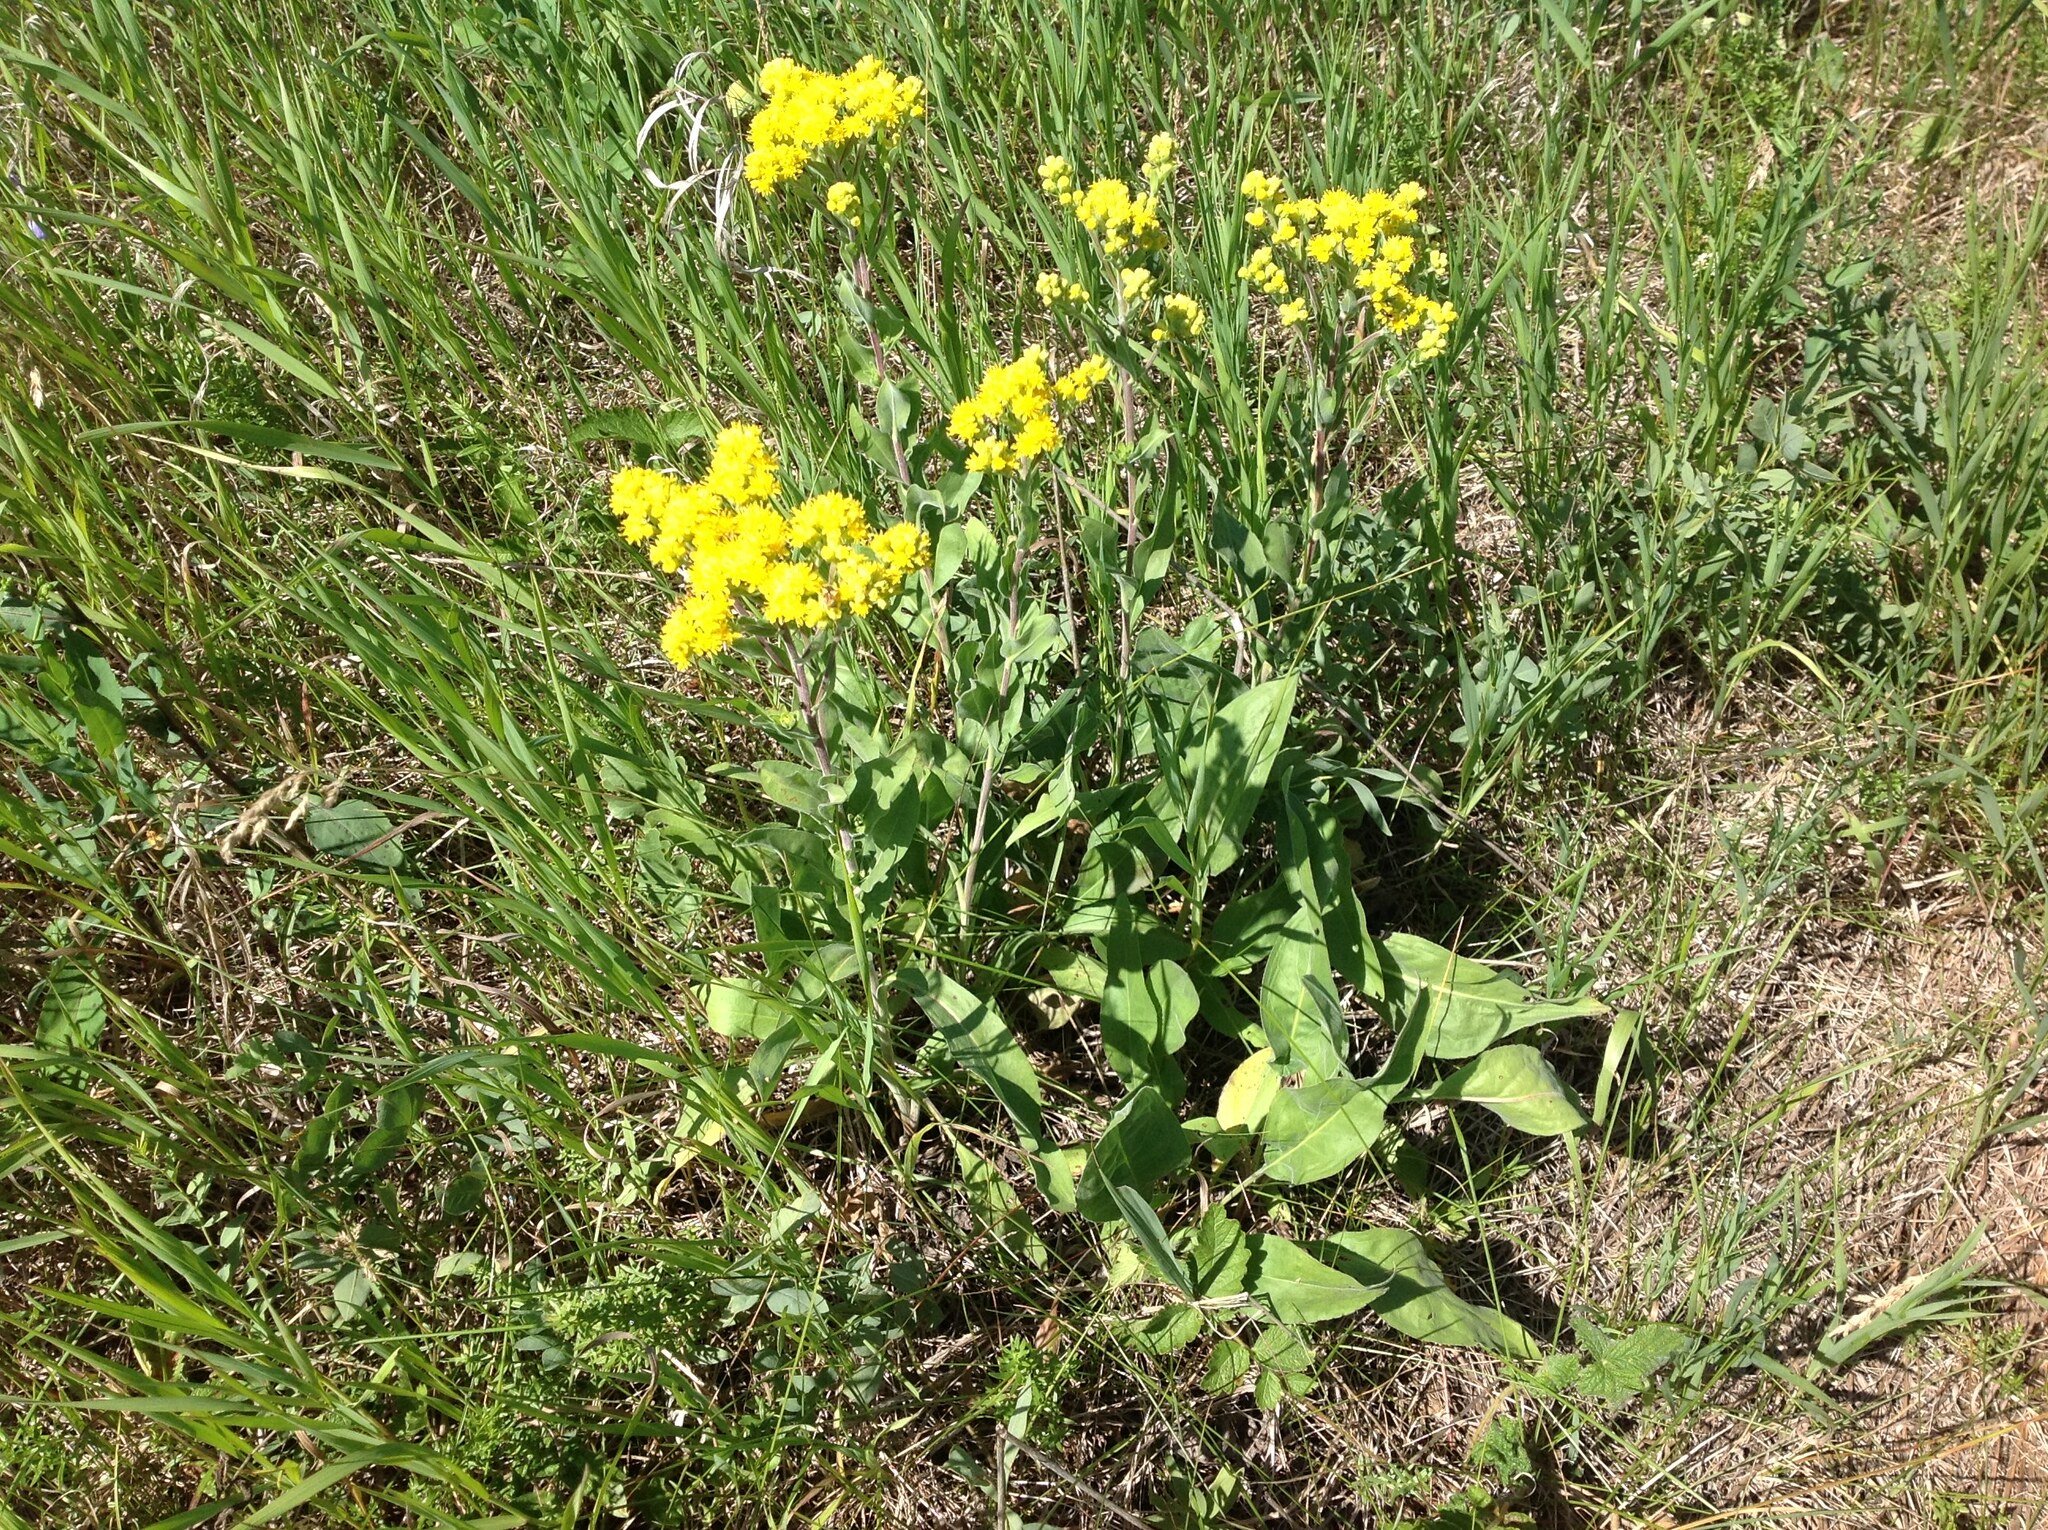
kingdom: Plantae
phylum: Tracheophyta
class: Magnoliopsida
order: Asterales
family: Asteraceae
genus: Solidago
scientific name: Solidago rigida
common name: Rigid goldenrod
